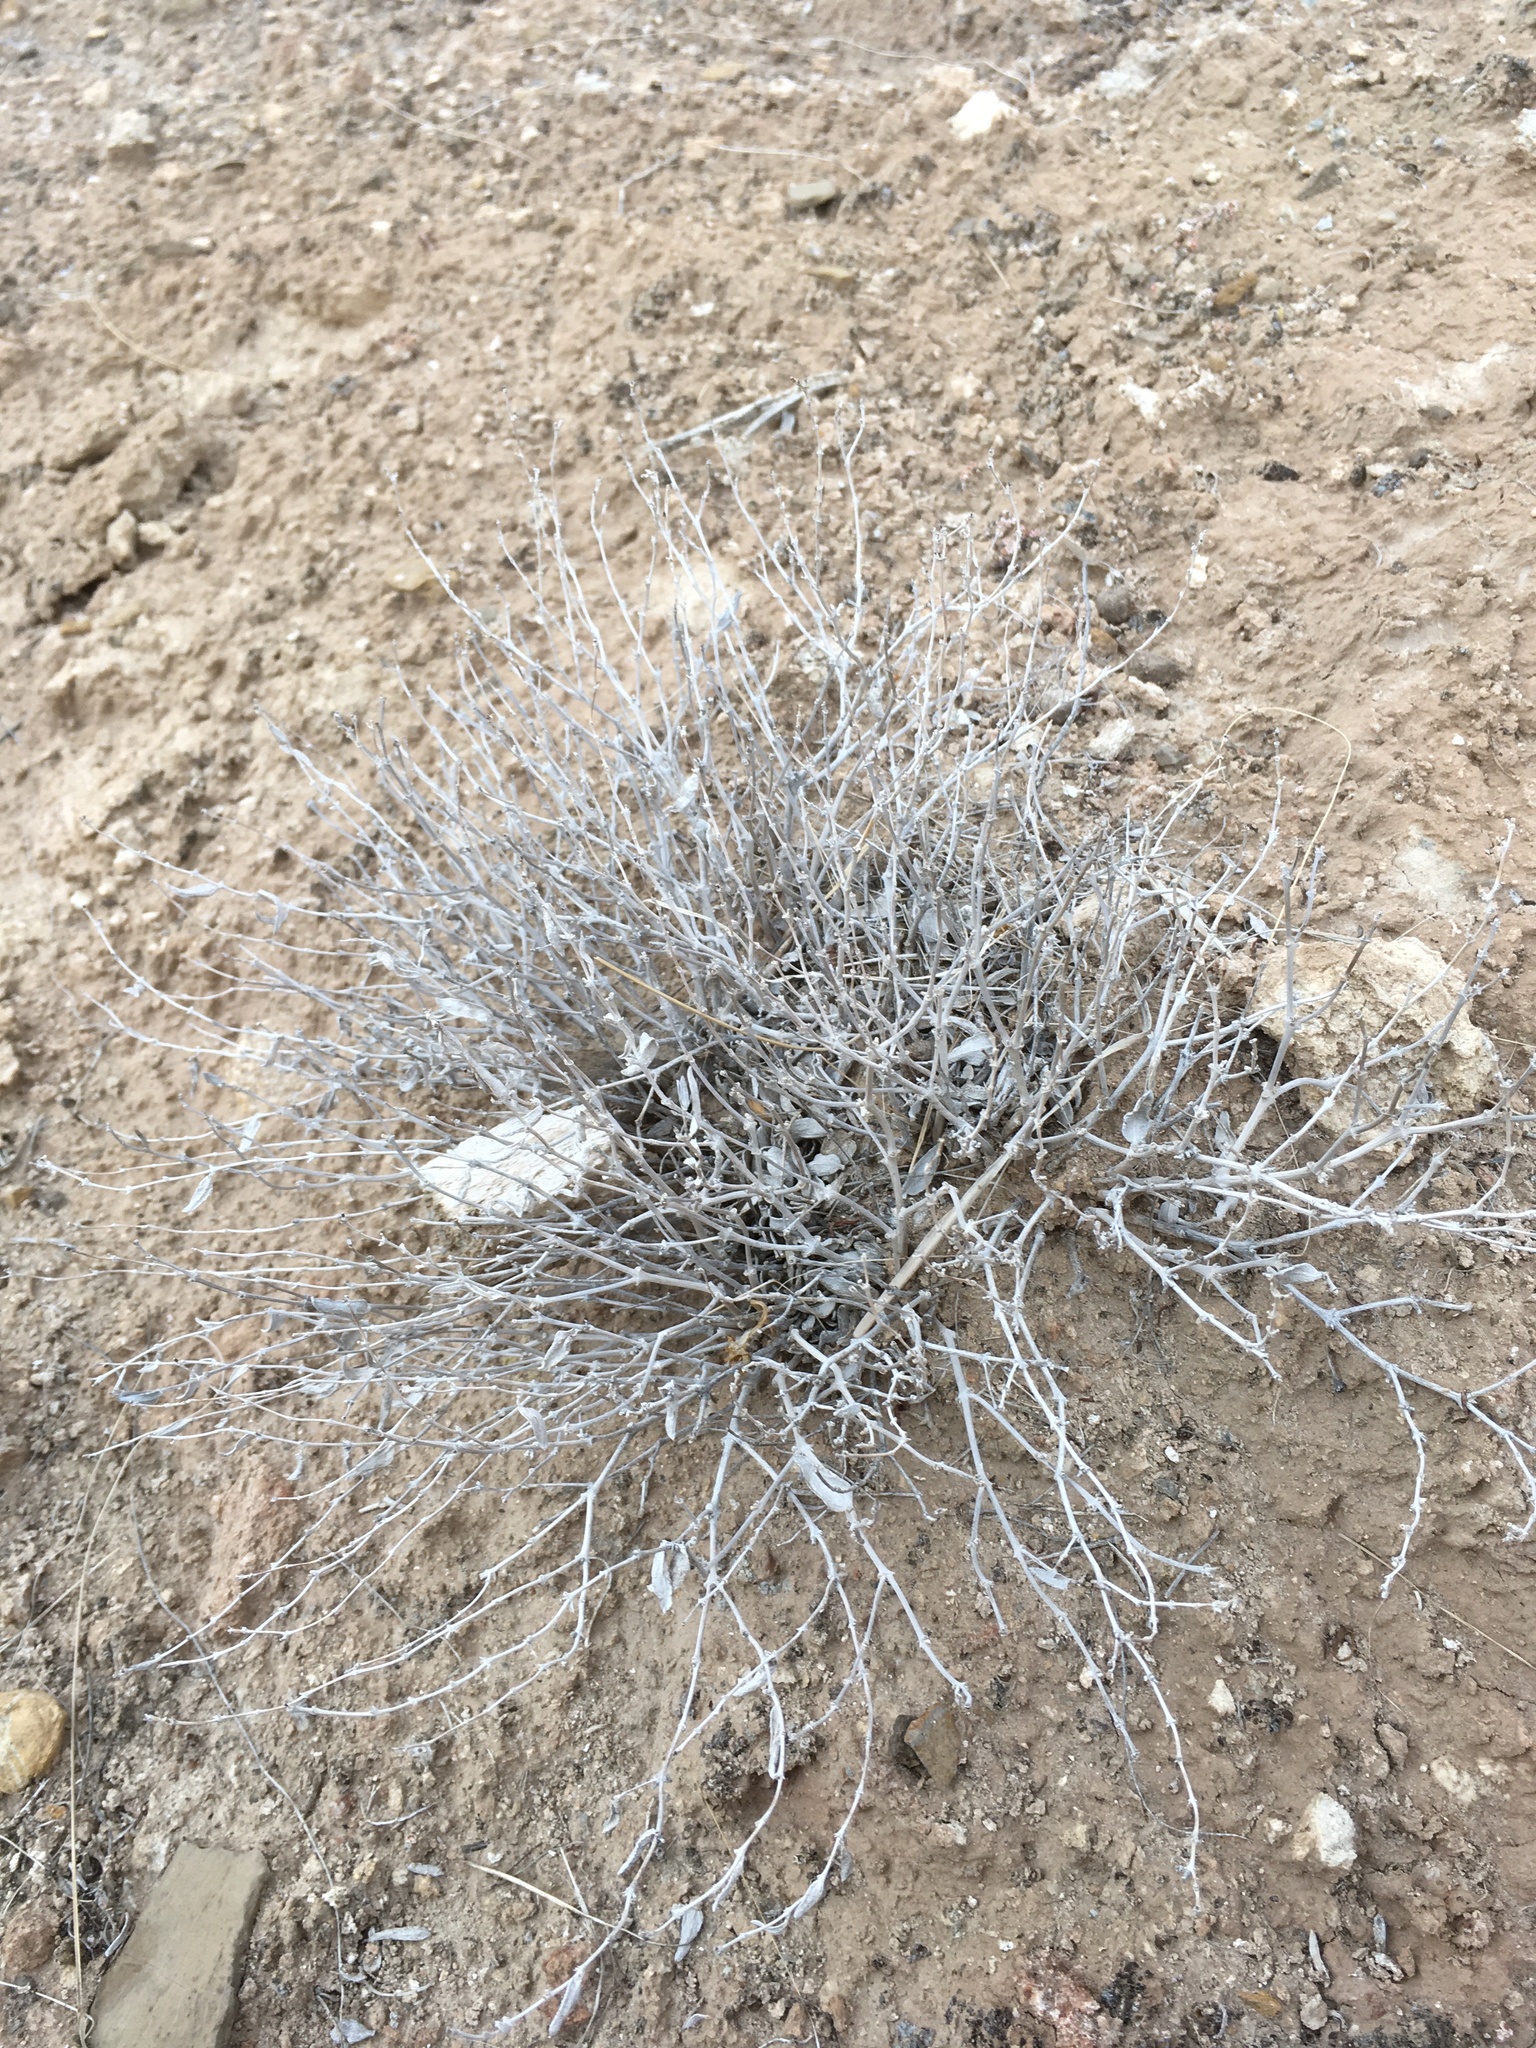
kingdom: Plantae
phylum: Tracheophyta
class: Magnoliopsida
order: Caryophyllales
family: Nyctaginaceae
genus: Acleisanthes
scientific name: Acleisanthes lanceolata
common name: Gypsum moonpod
